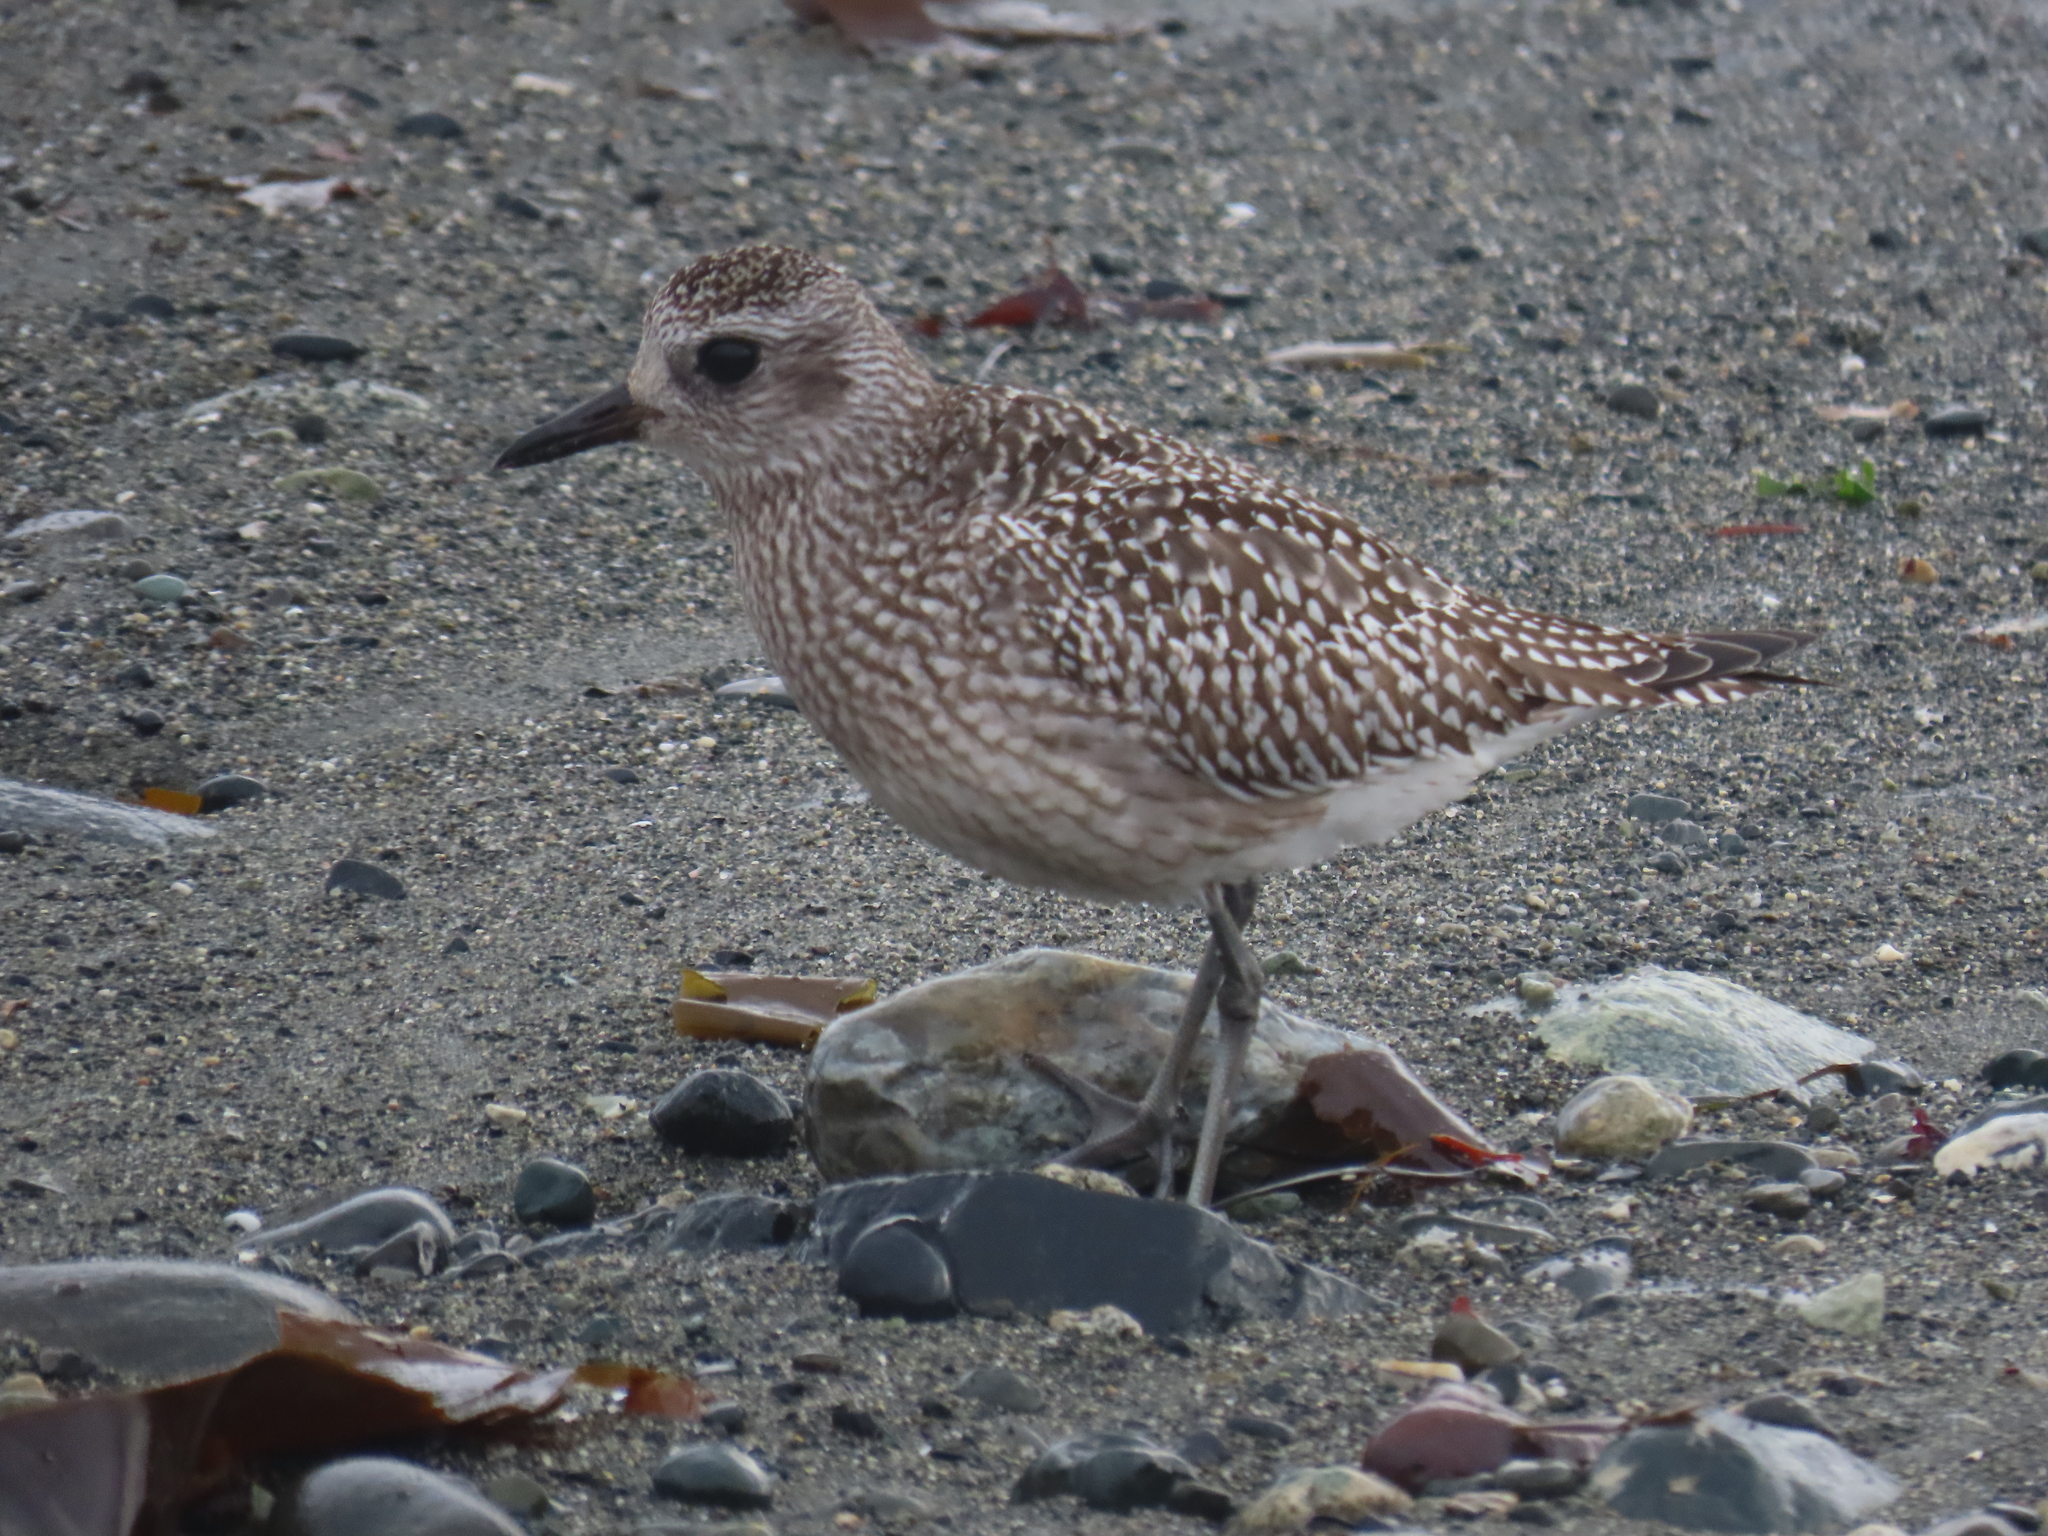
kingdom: Animalia
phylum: Chordata
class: Aves
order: Charadriiformes
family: Charadriidae
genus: Pluvialis
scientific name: Pluvialis squatarola
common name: Grey plover
